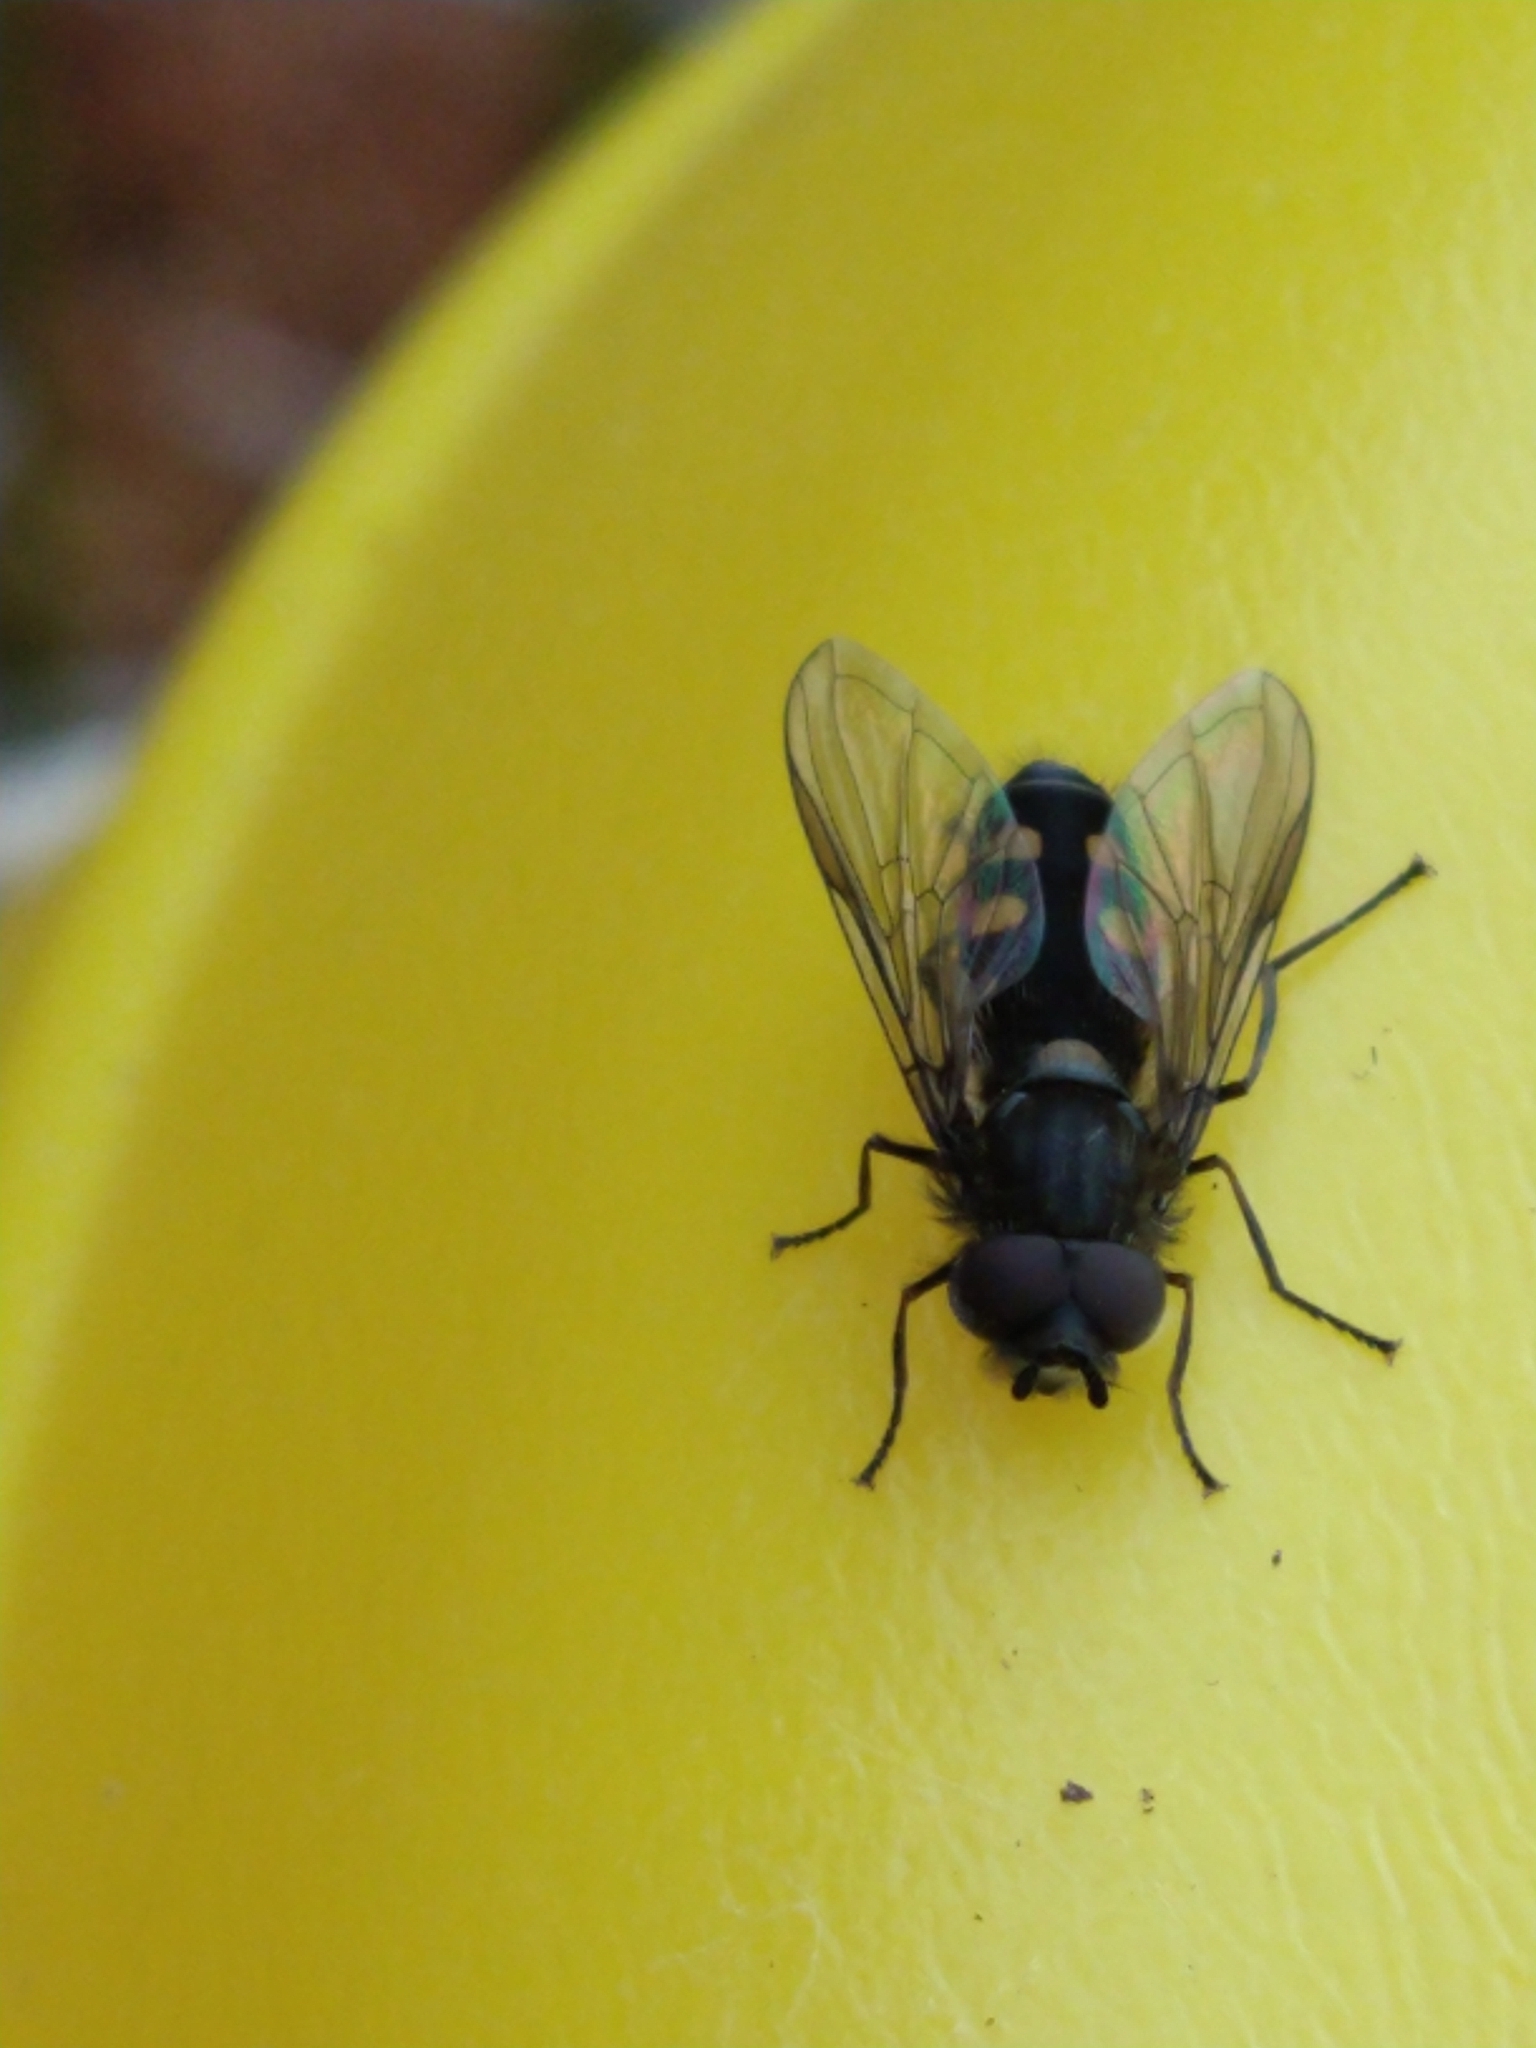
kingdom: Animalia
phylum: Arthropoda
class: Insecta
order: Diptera
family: Syrphidae
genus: Syrphus
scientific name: Syrphus octomaculatus
